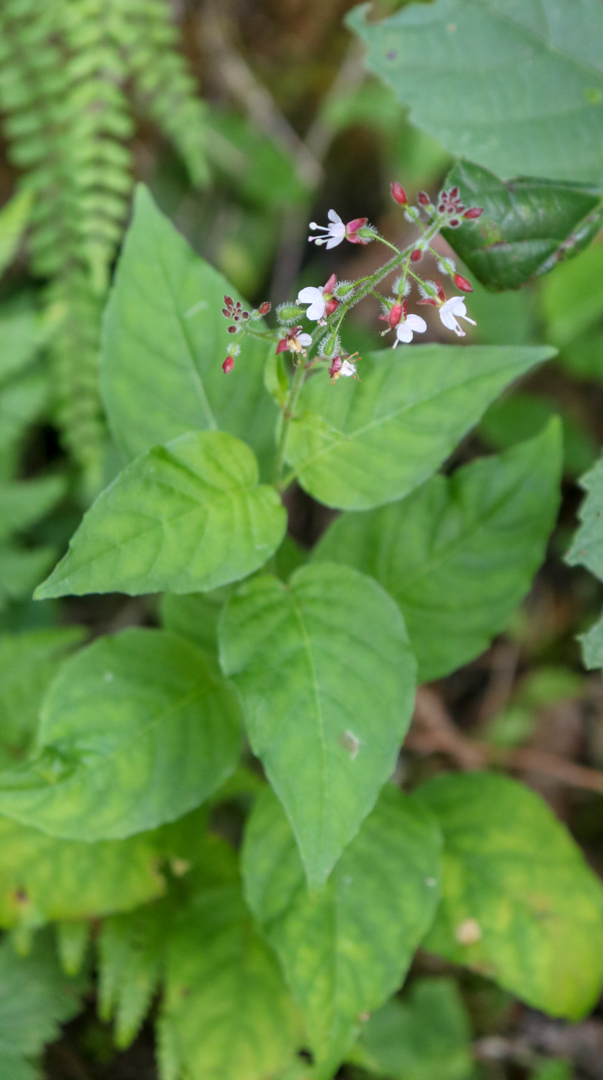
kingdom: Plantae
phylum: Tracheophyta
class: Magnoliopsida
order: Myrtales
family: Onagraceae
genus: Circaea
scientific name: Circaea lutetiana
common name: Enchanter's-nightshade
